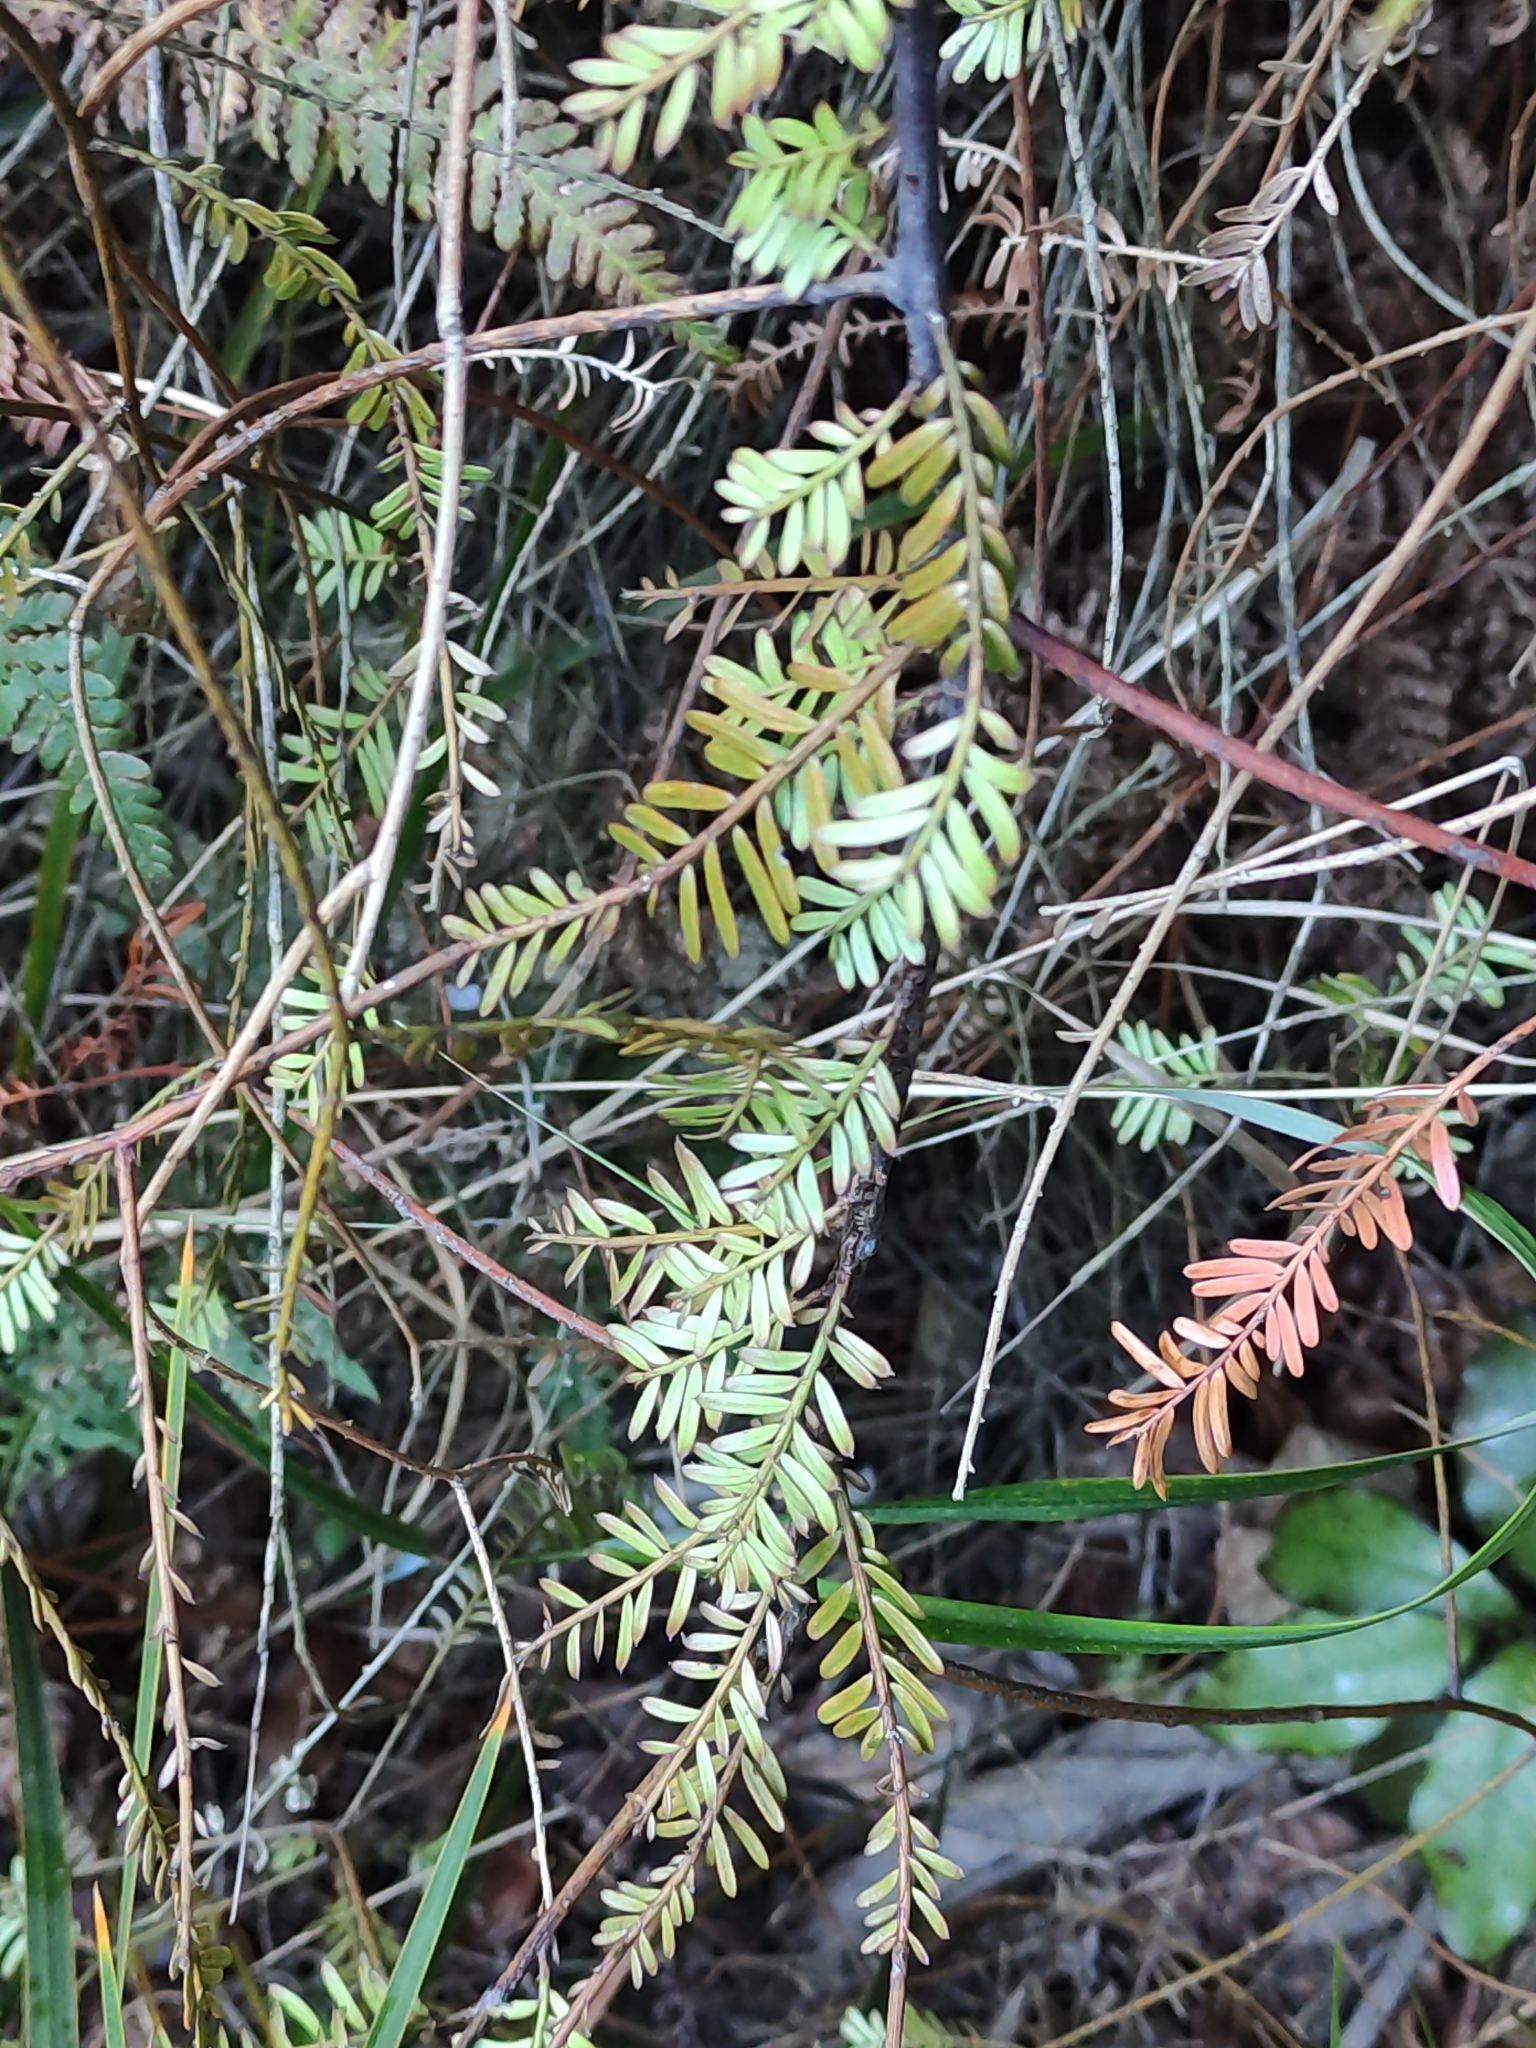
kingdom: Plantae
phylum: Tracheophyta
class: Pinopsida
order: Pinales
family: Podocarpaceae
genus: Prumnopitys
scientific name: Prumnopitys taxifolia
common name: Matai
